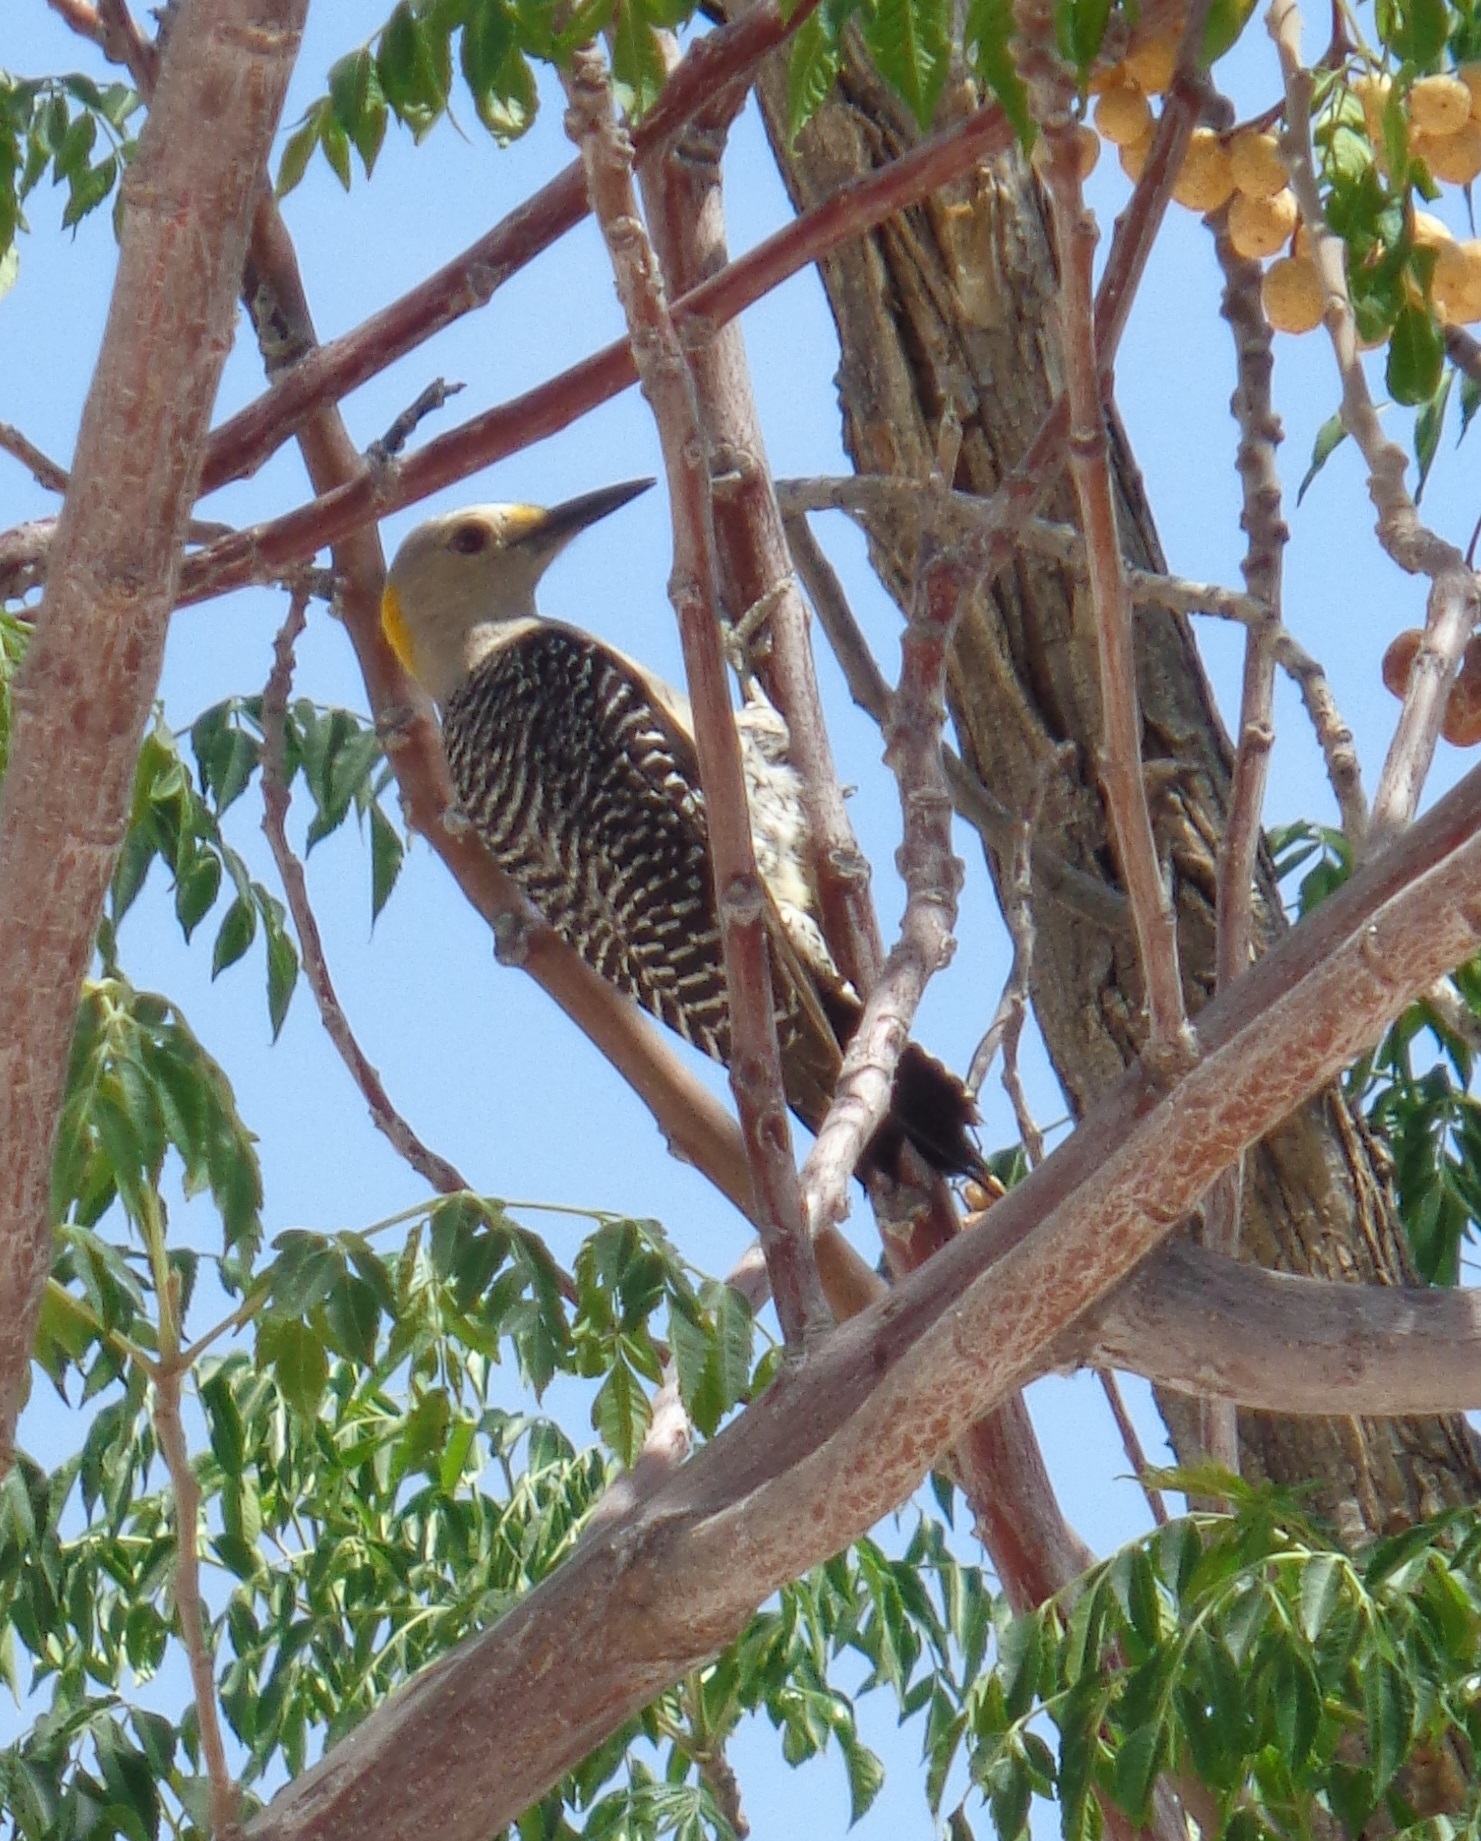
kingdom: Animalia
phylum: Chordata
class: Aves
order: Piciformes
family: Picidae
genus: Melanerpes
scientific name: Melanerpes aurifrons
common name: Golden-fronted woodpecker
